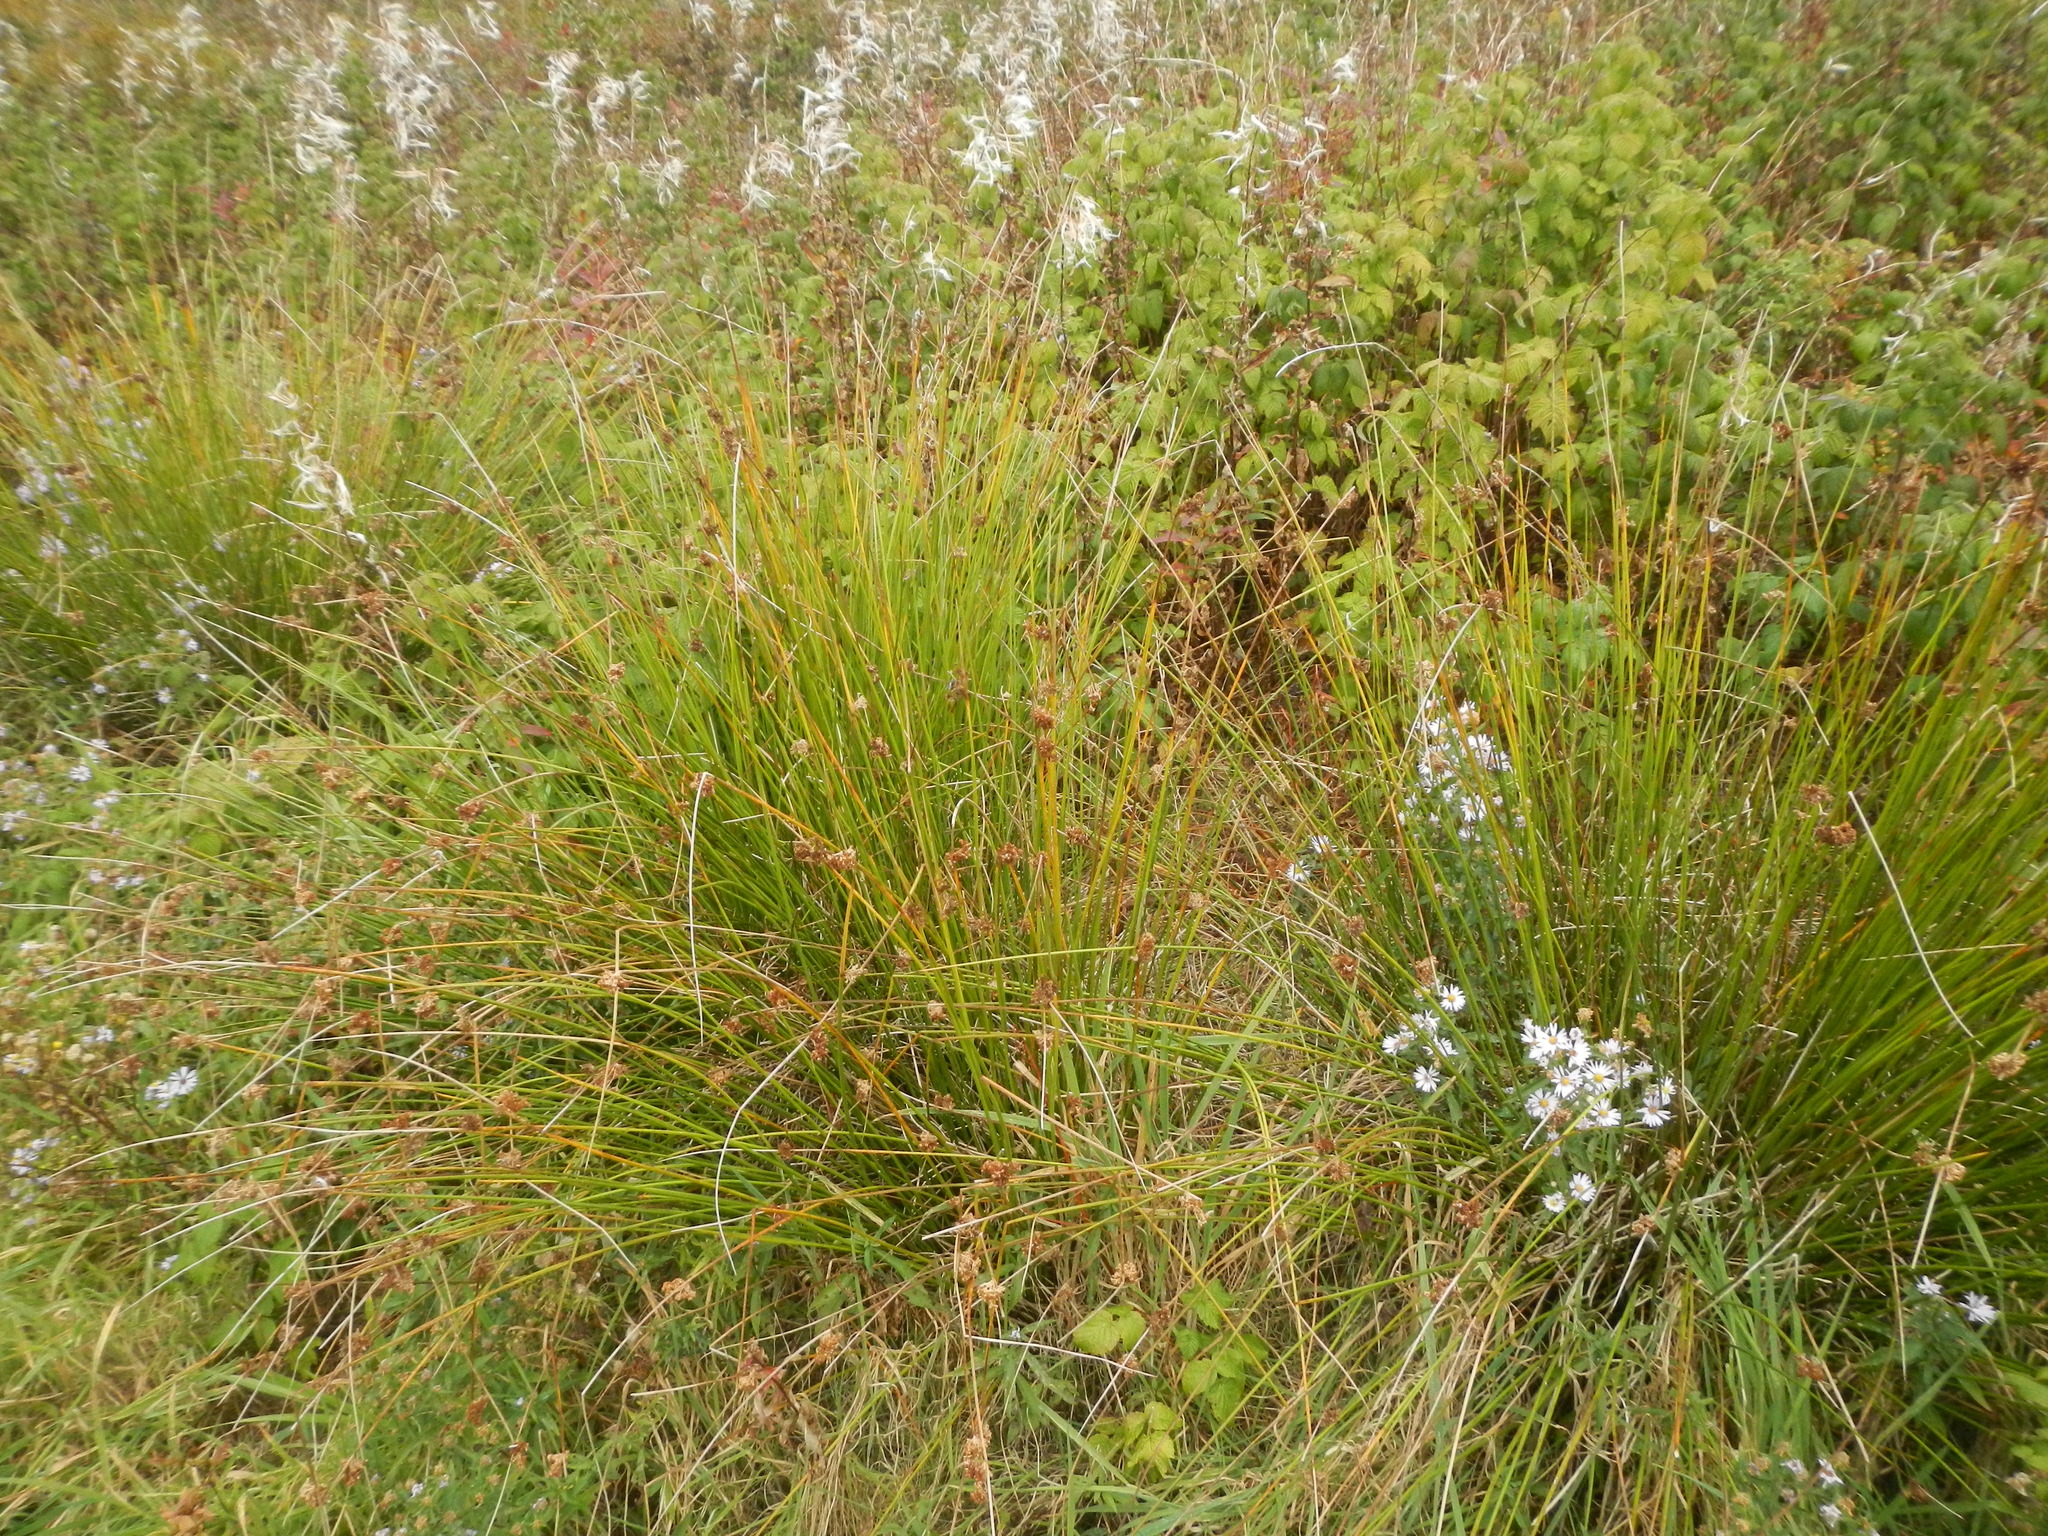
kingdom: Plantae
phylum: Tracheophyta
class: Liliopsida
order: Poales
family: Juncaceae
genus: Juncus
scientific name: Juncus effusus
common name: Soft rush
